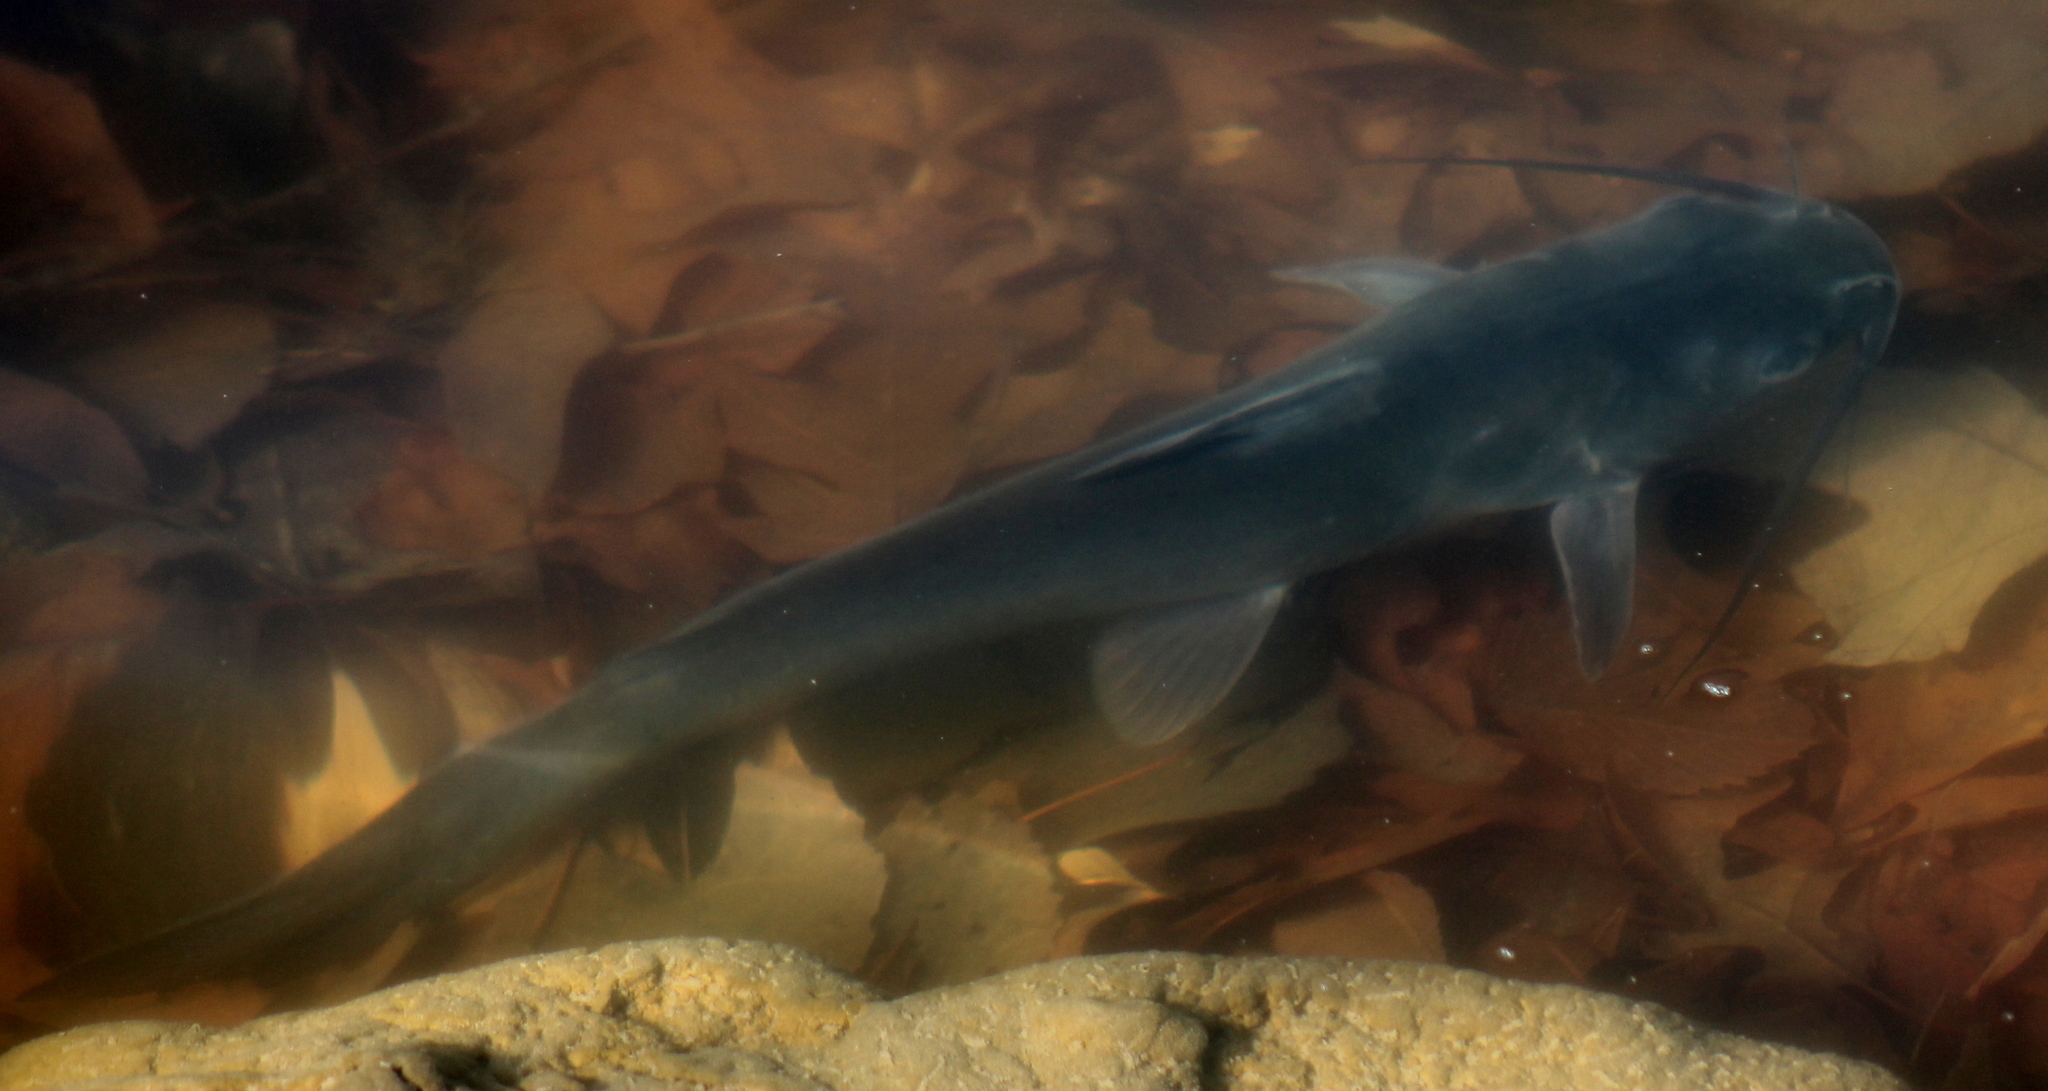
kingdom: Animalia
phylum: Chordata
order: Siluriformes
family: Ictaluridae
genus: Ictalurus
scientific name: Ictalurus punctatus
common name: Channel catfish
